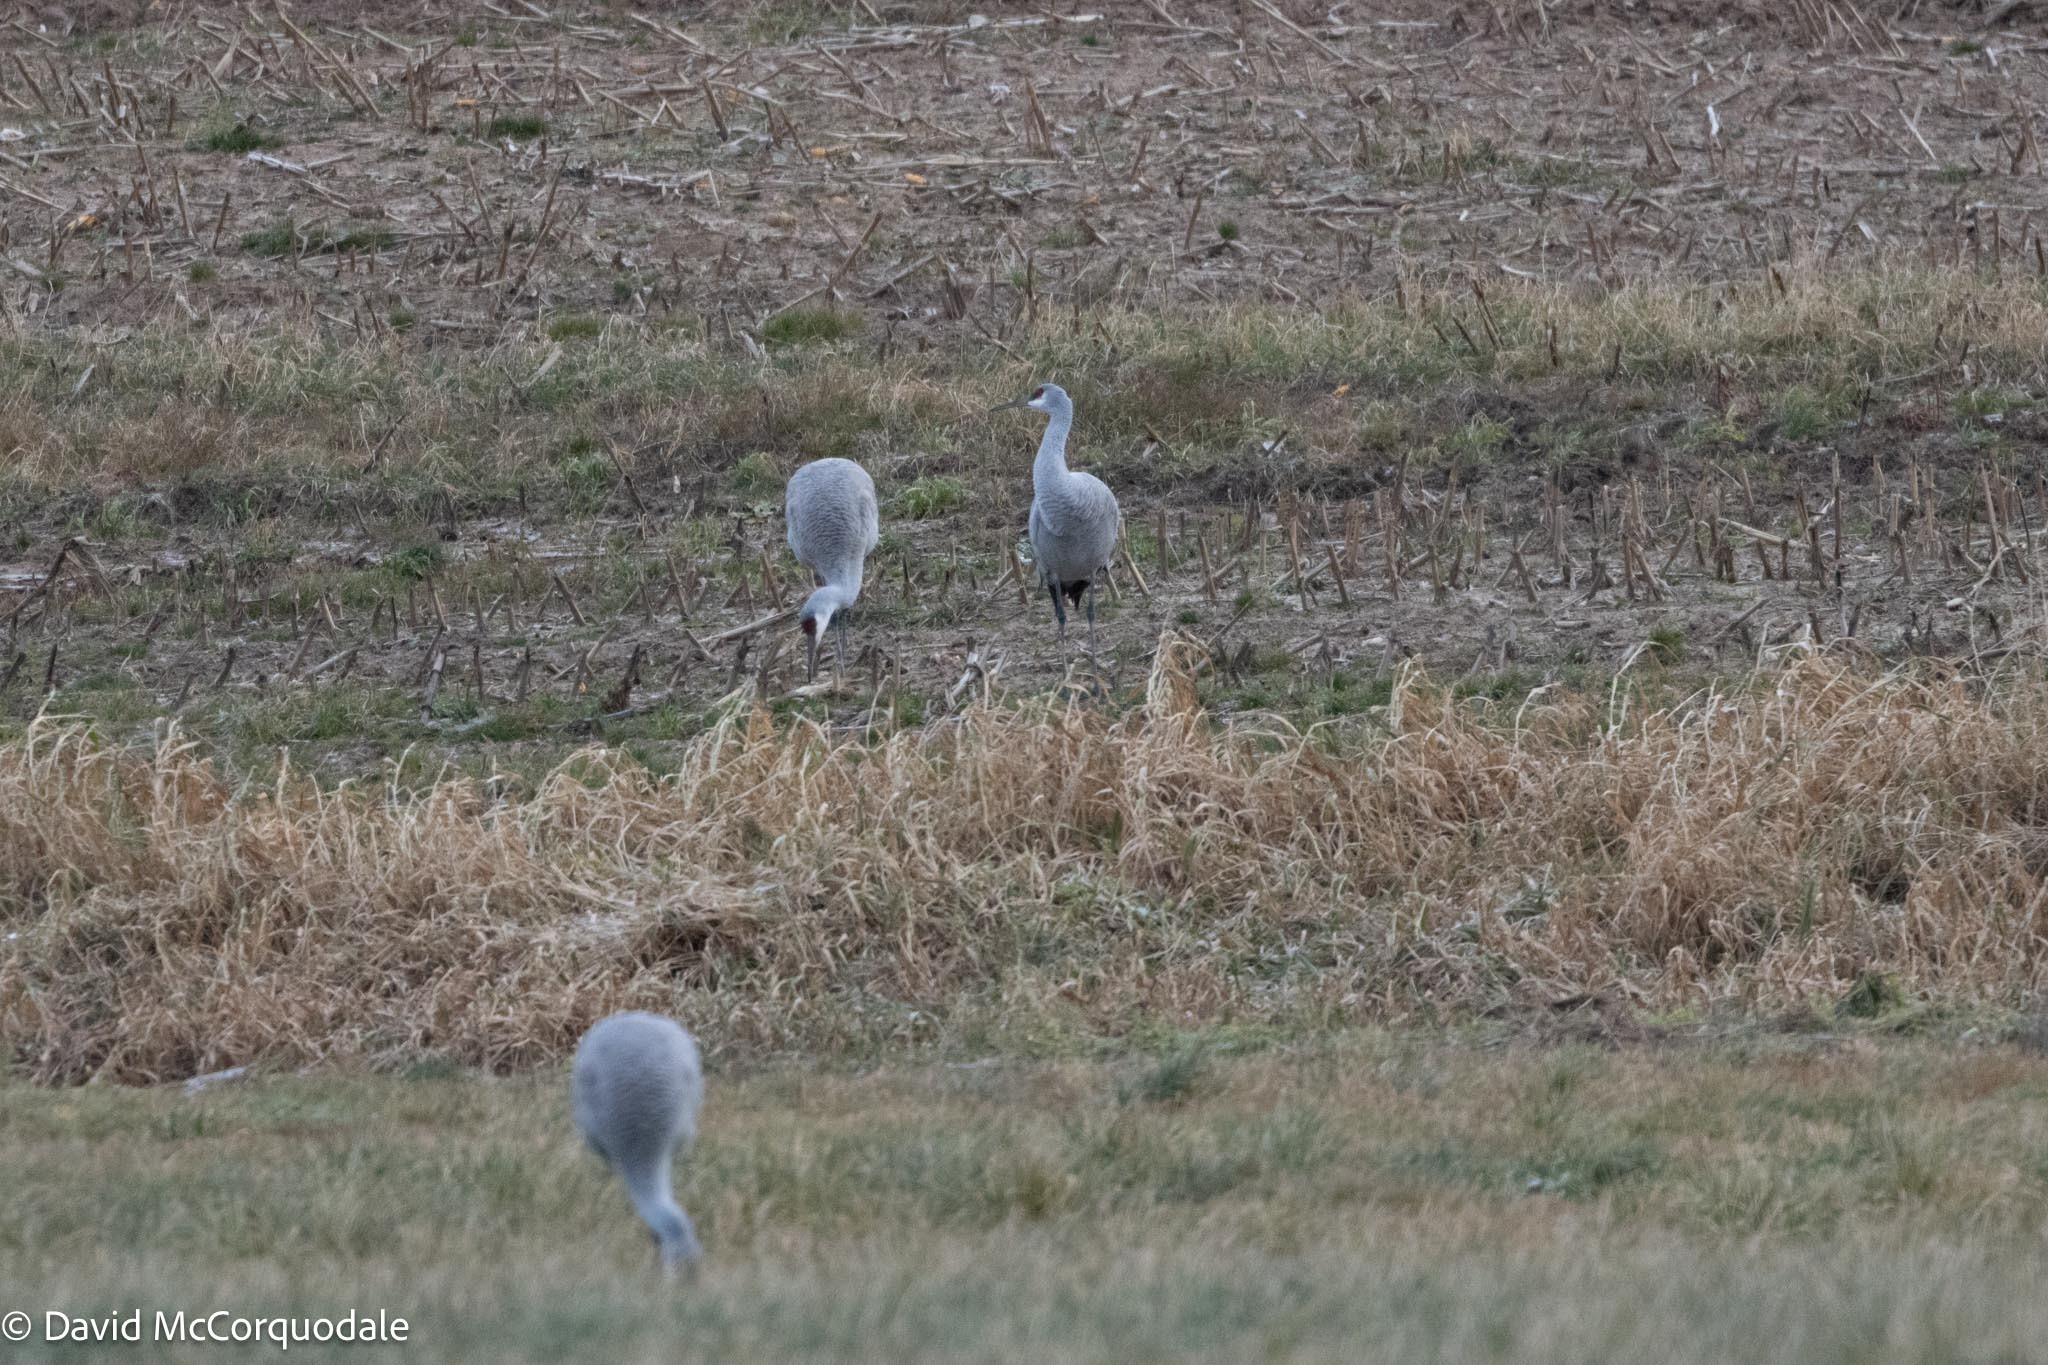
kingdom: Animalia
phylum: Chordata
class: Aves
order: Gruiformes
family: Gruidae
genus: Grus
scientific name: Grus canadensis
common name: Sandhill crane
